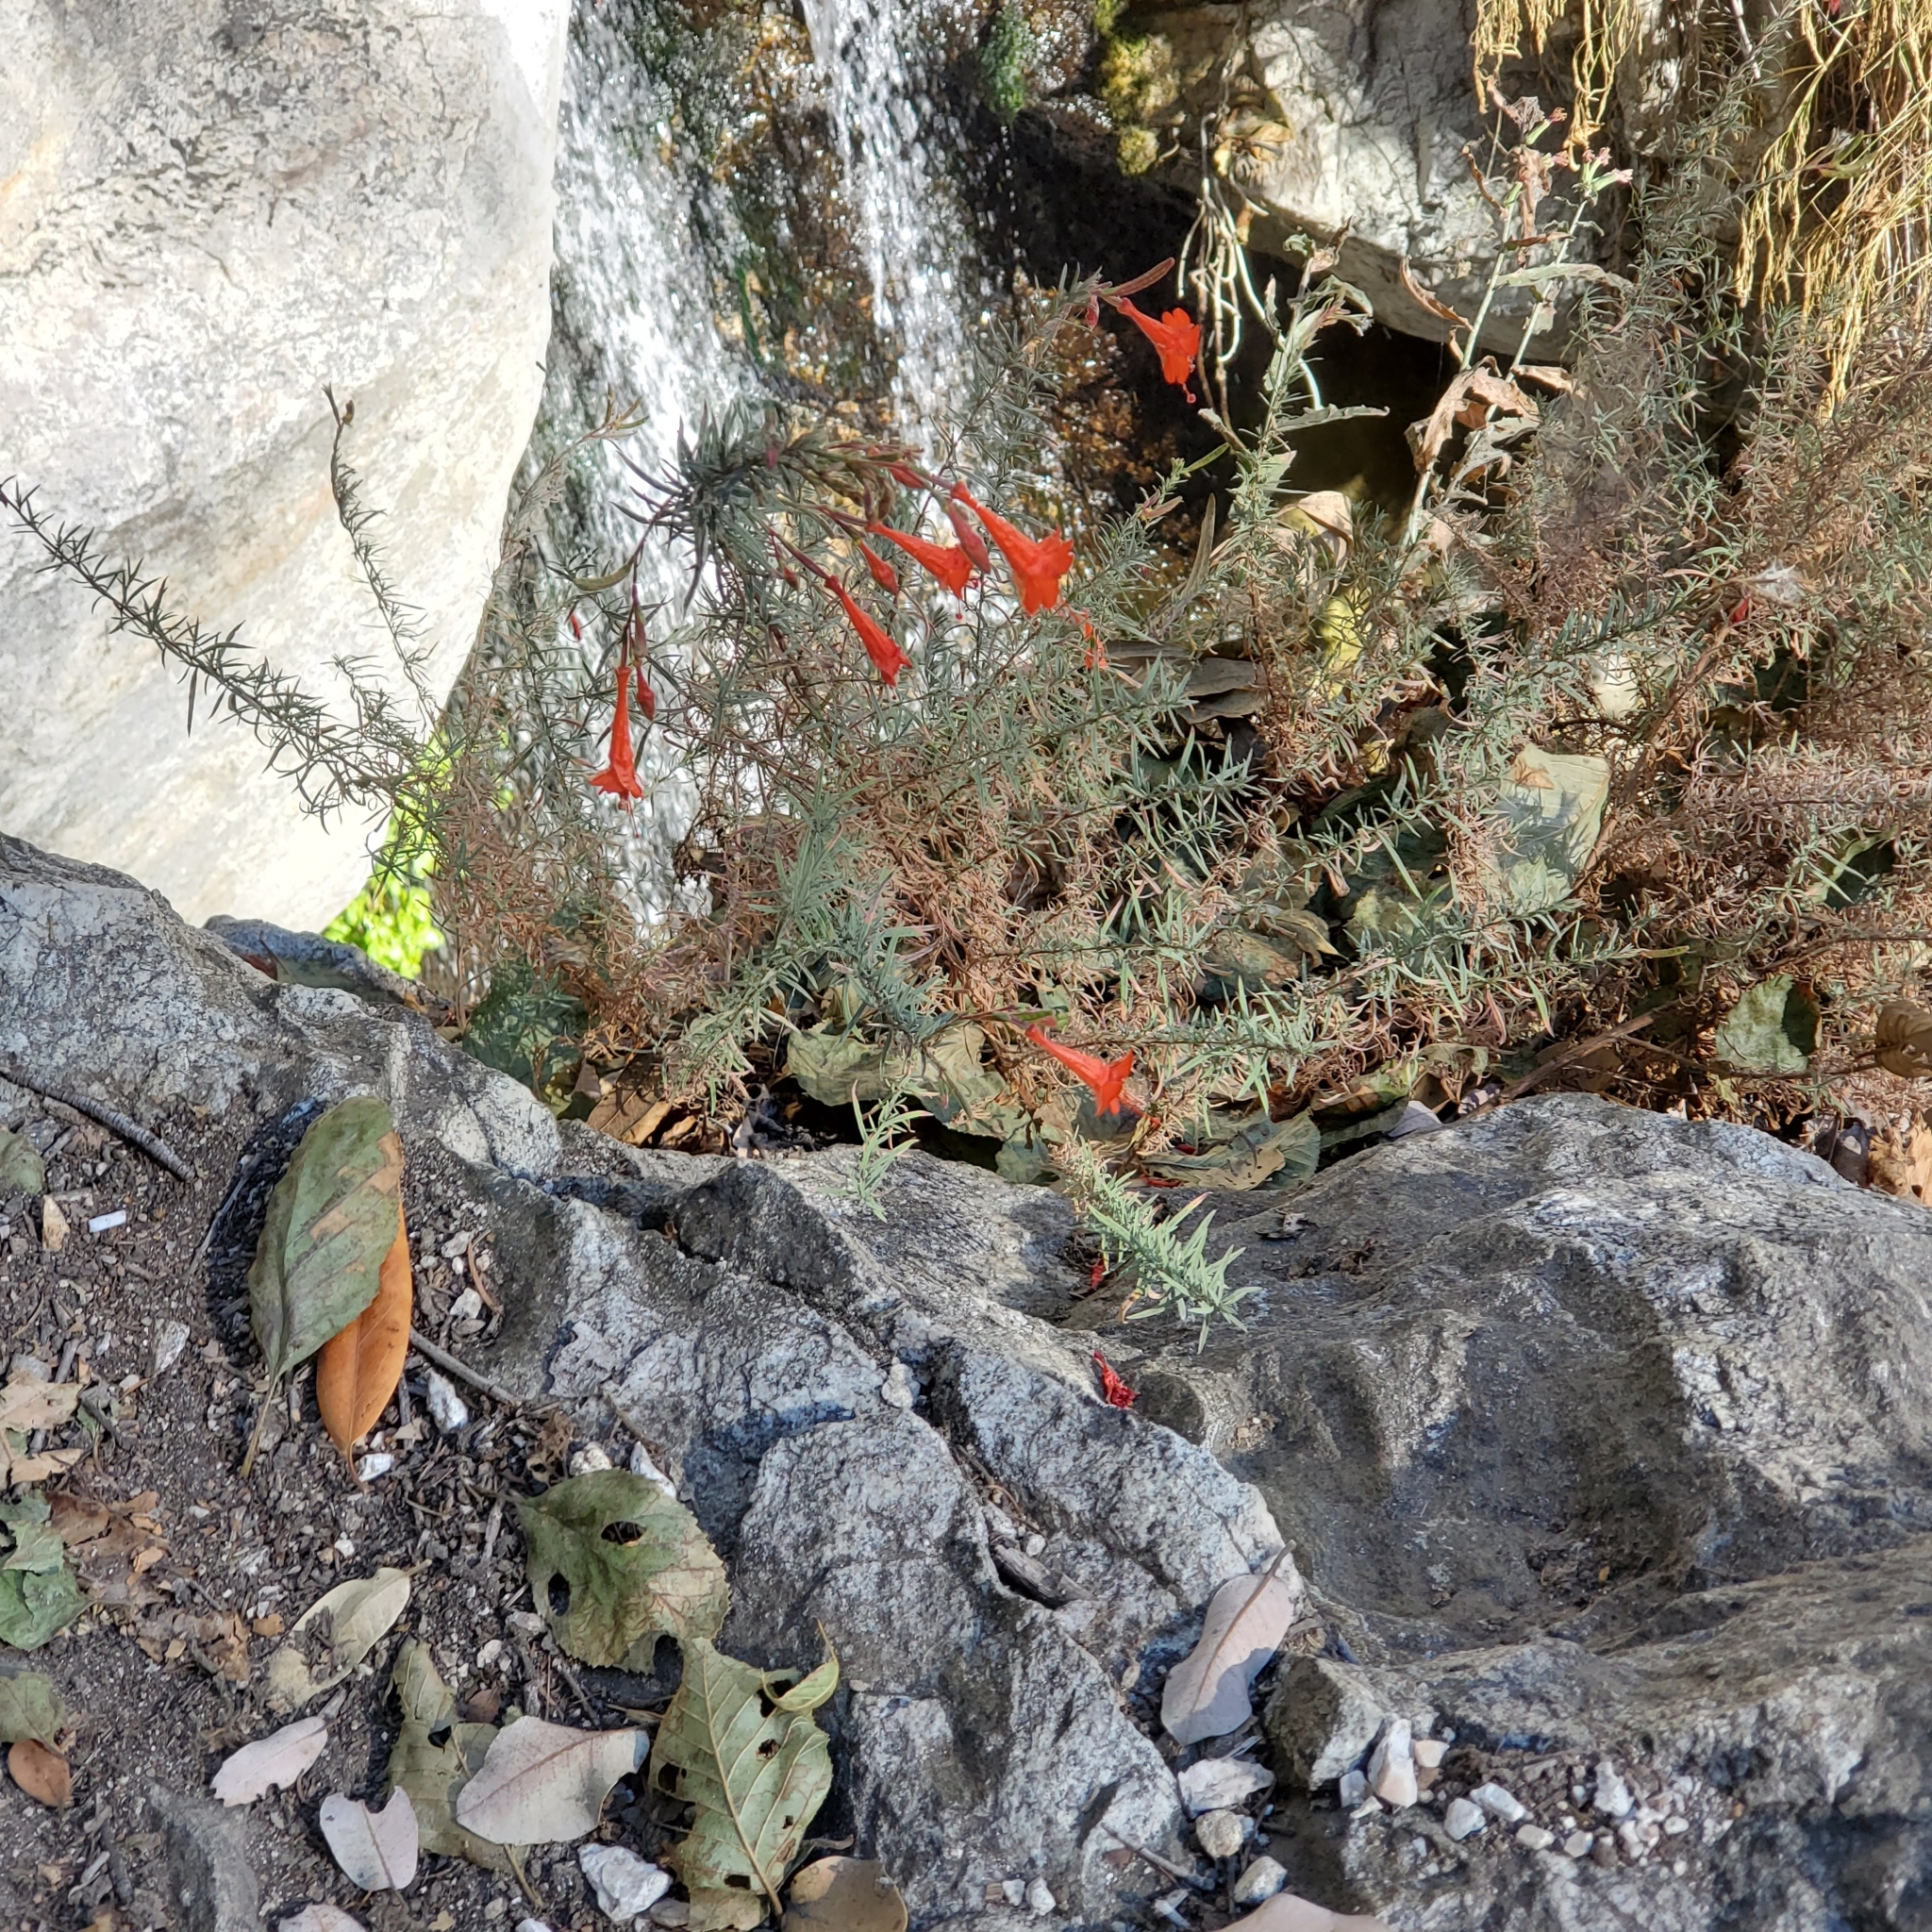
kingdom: Plantae
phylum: Tracheophyta
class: Magnoliopsida
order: Myrtales
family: Onagraceae
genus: Epilobium
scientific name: Epilobium canum
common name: California-fuchsia
